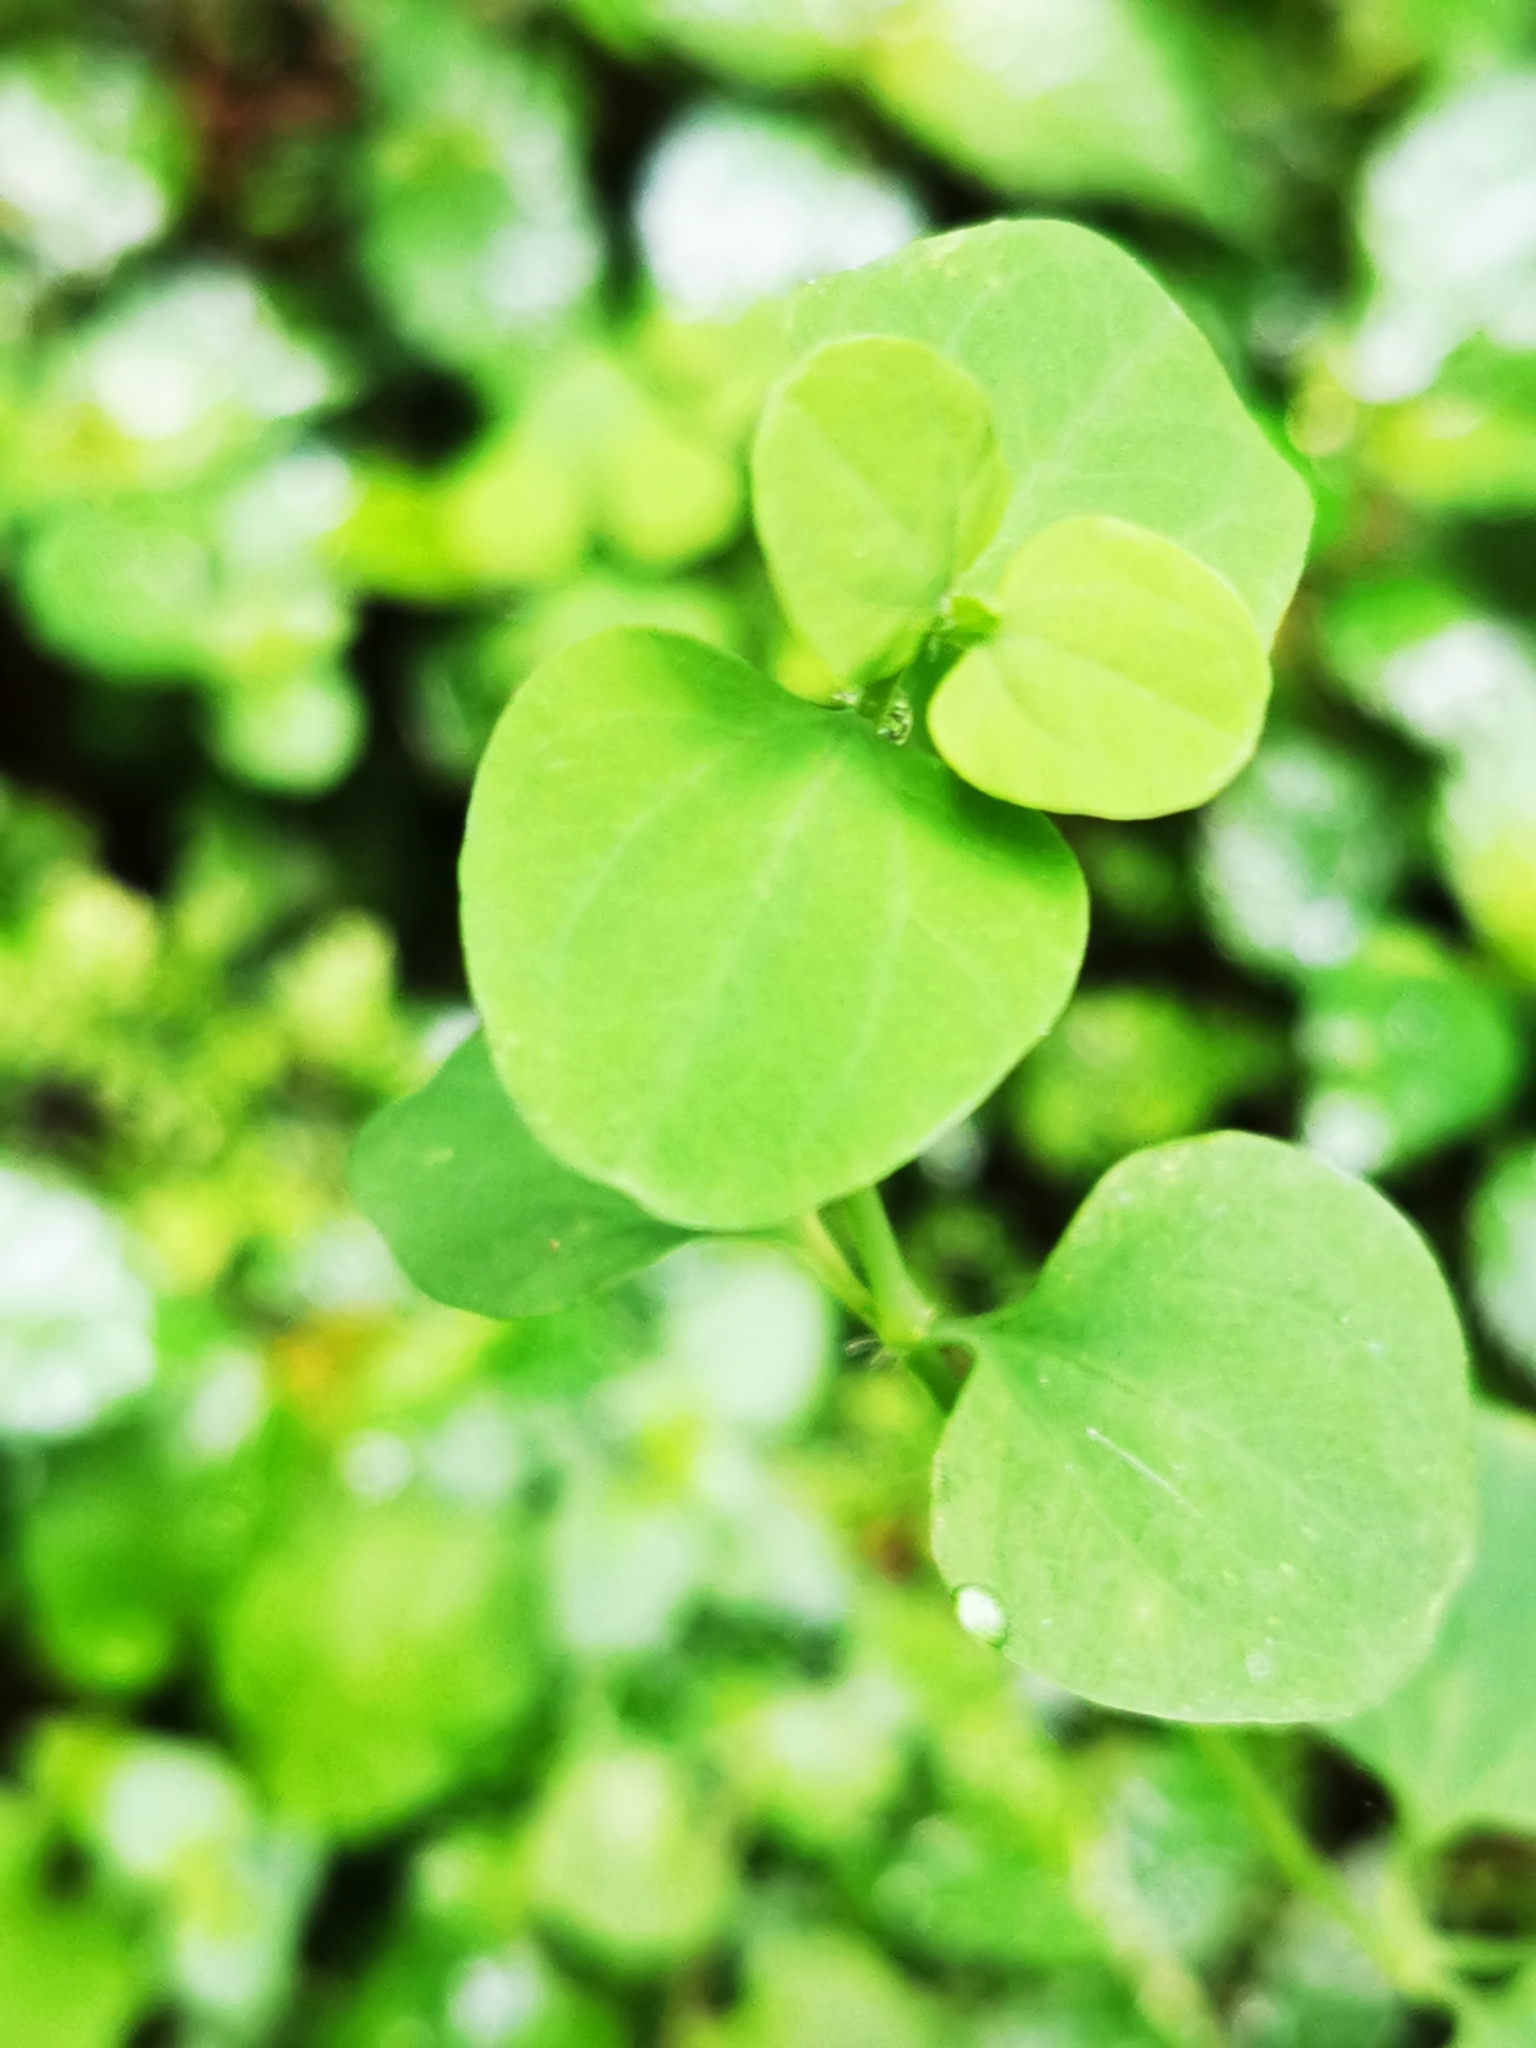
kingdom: Plantae
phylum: Tracheophyta
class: Magnoliopsida
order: Caryophyllales
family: Caryophyllaceae
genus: Drymaria
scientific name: Drymaria cordata
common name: Whitesnow
